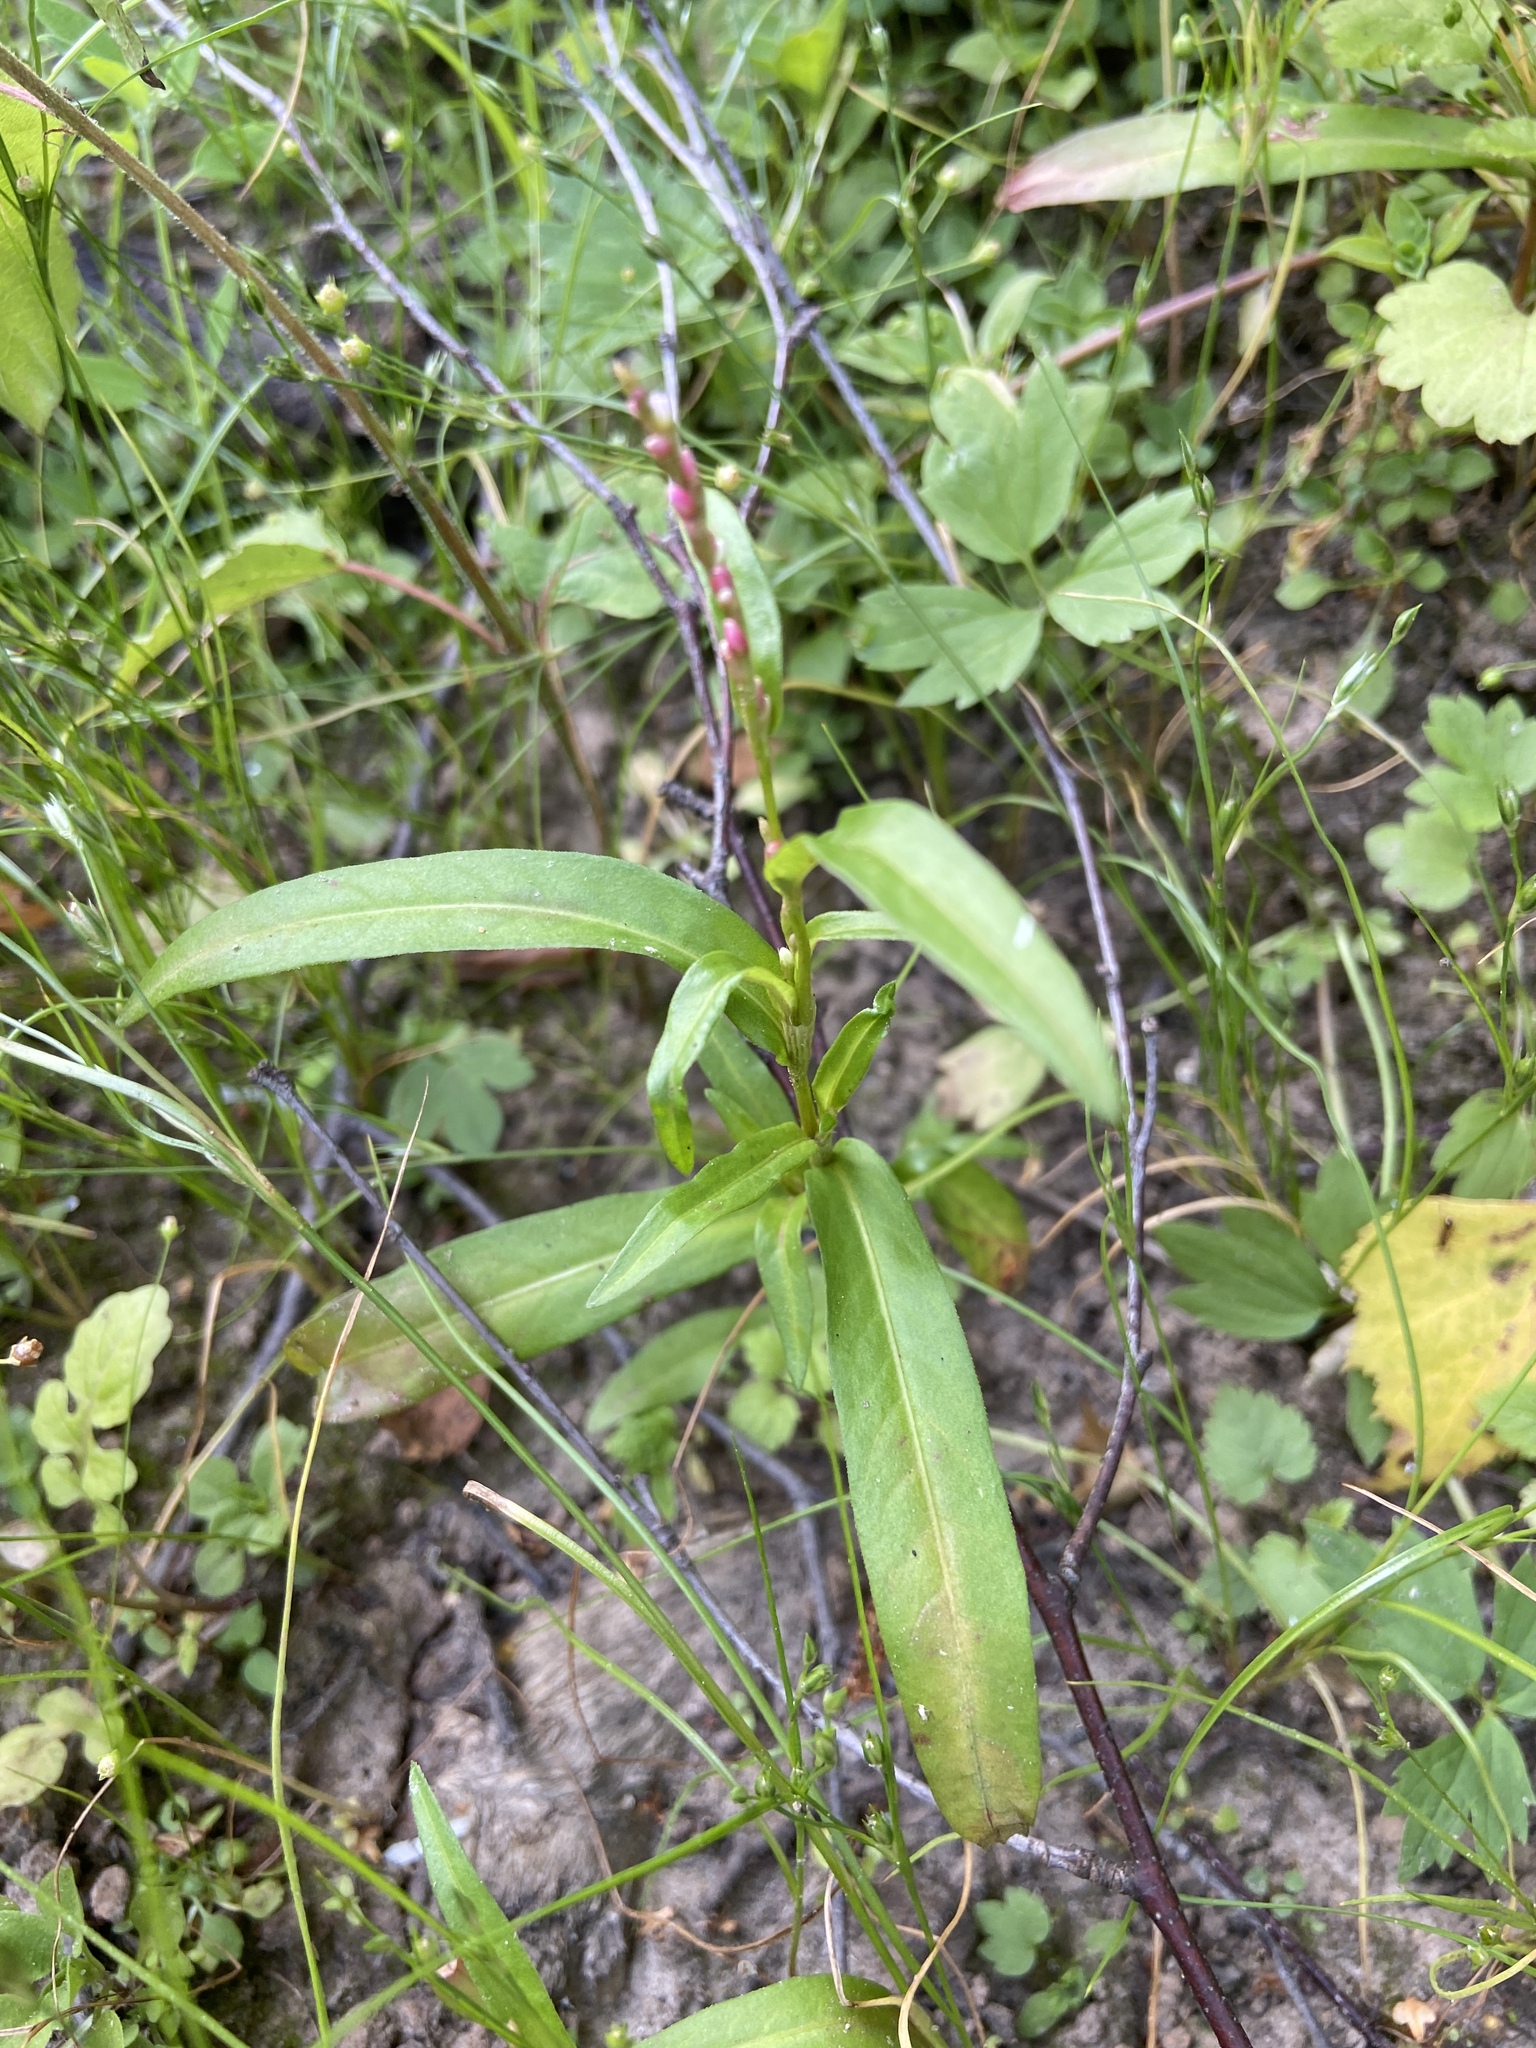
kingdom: Plantae
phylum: Tracheophyta
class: Magnoliopsida
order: Caryophyllales
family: Polygonaceae
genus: Persicaria
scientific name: Persicaria hydropiper
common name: Water-pepper
